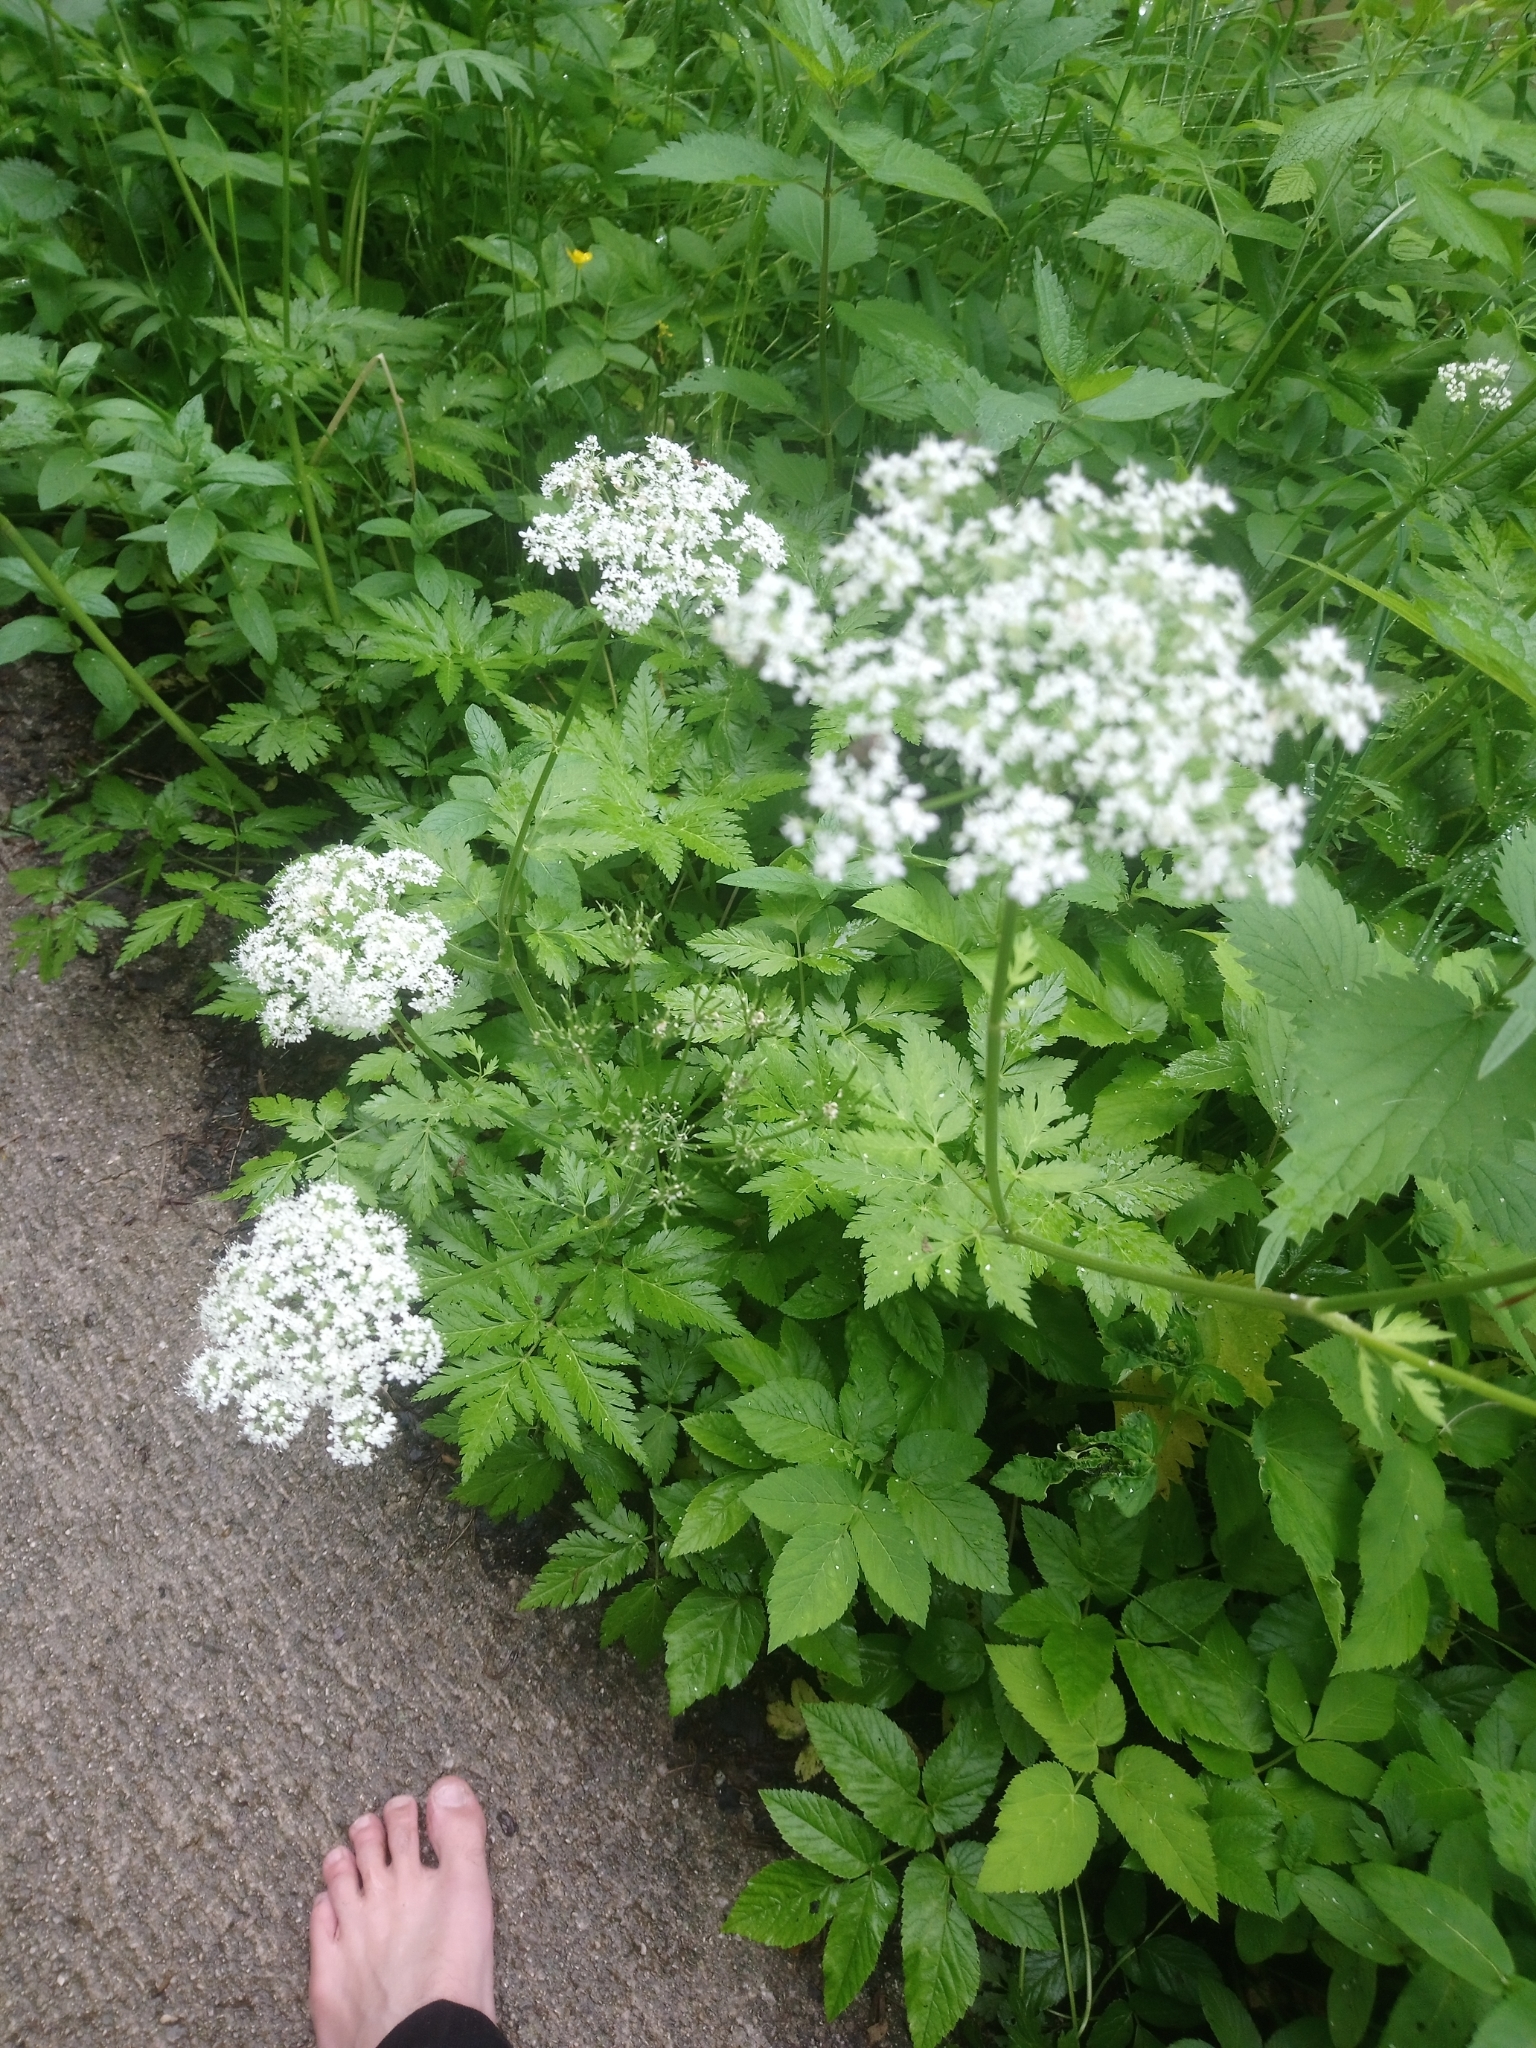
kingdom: Plantae
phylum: Tracheophyta
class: Magnoliopsida
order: Apiales
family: Apiaceae
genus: Chaerophyllum
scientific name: Chaerophyllum hirsutum
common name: Hairy chervil
